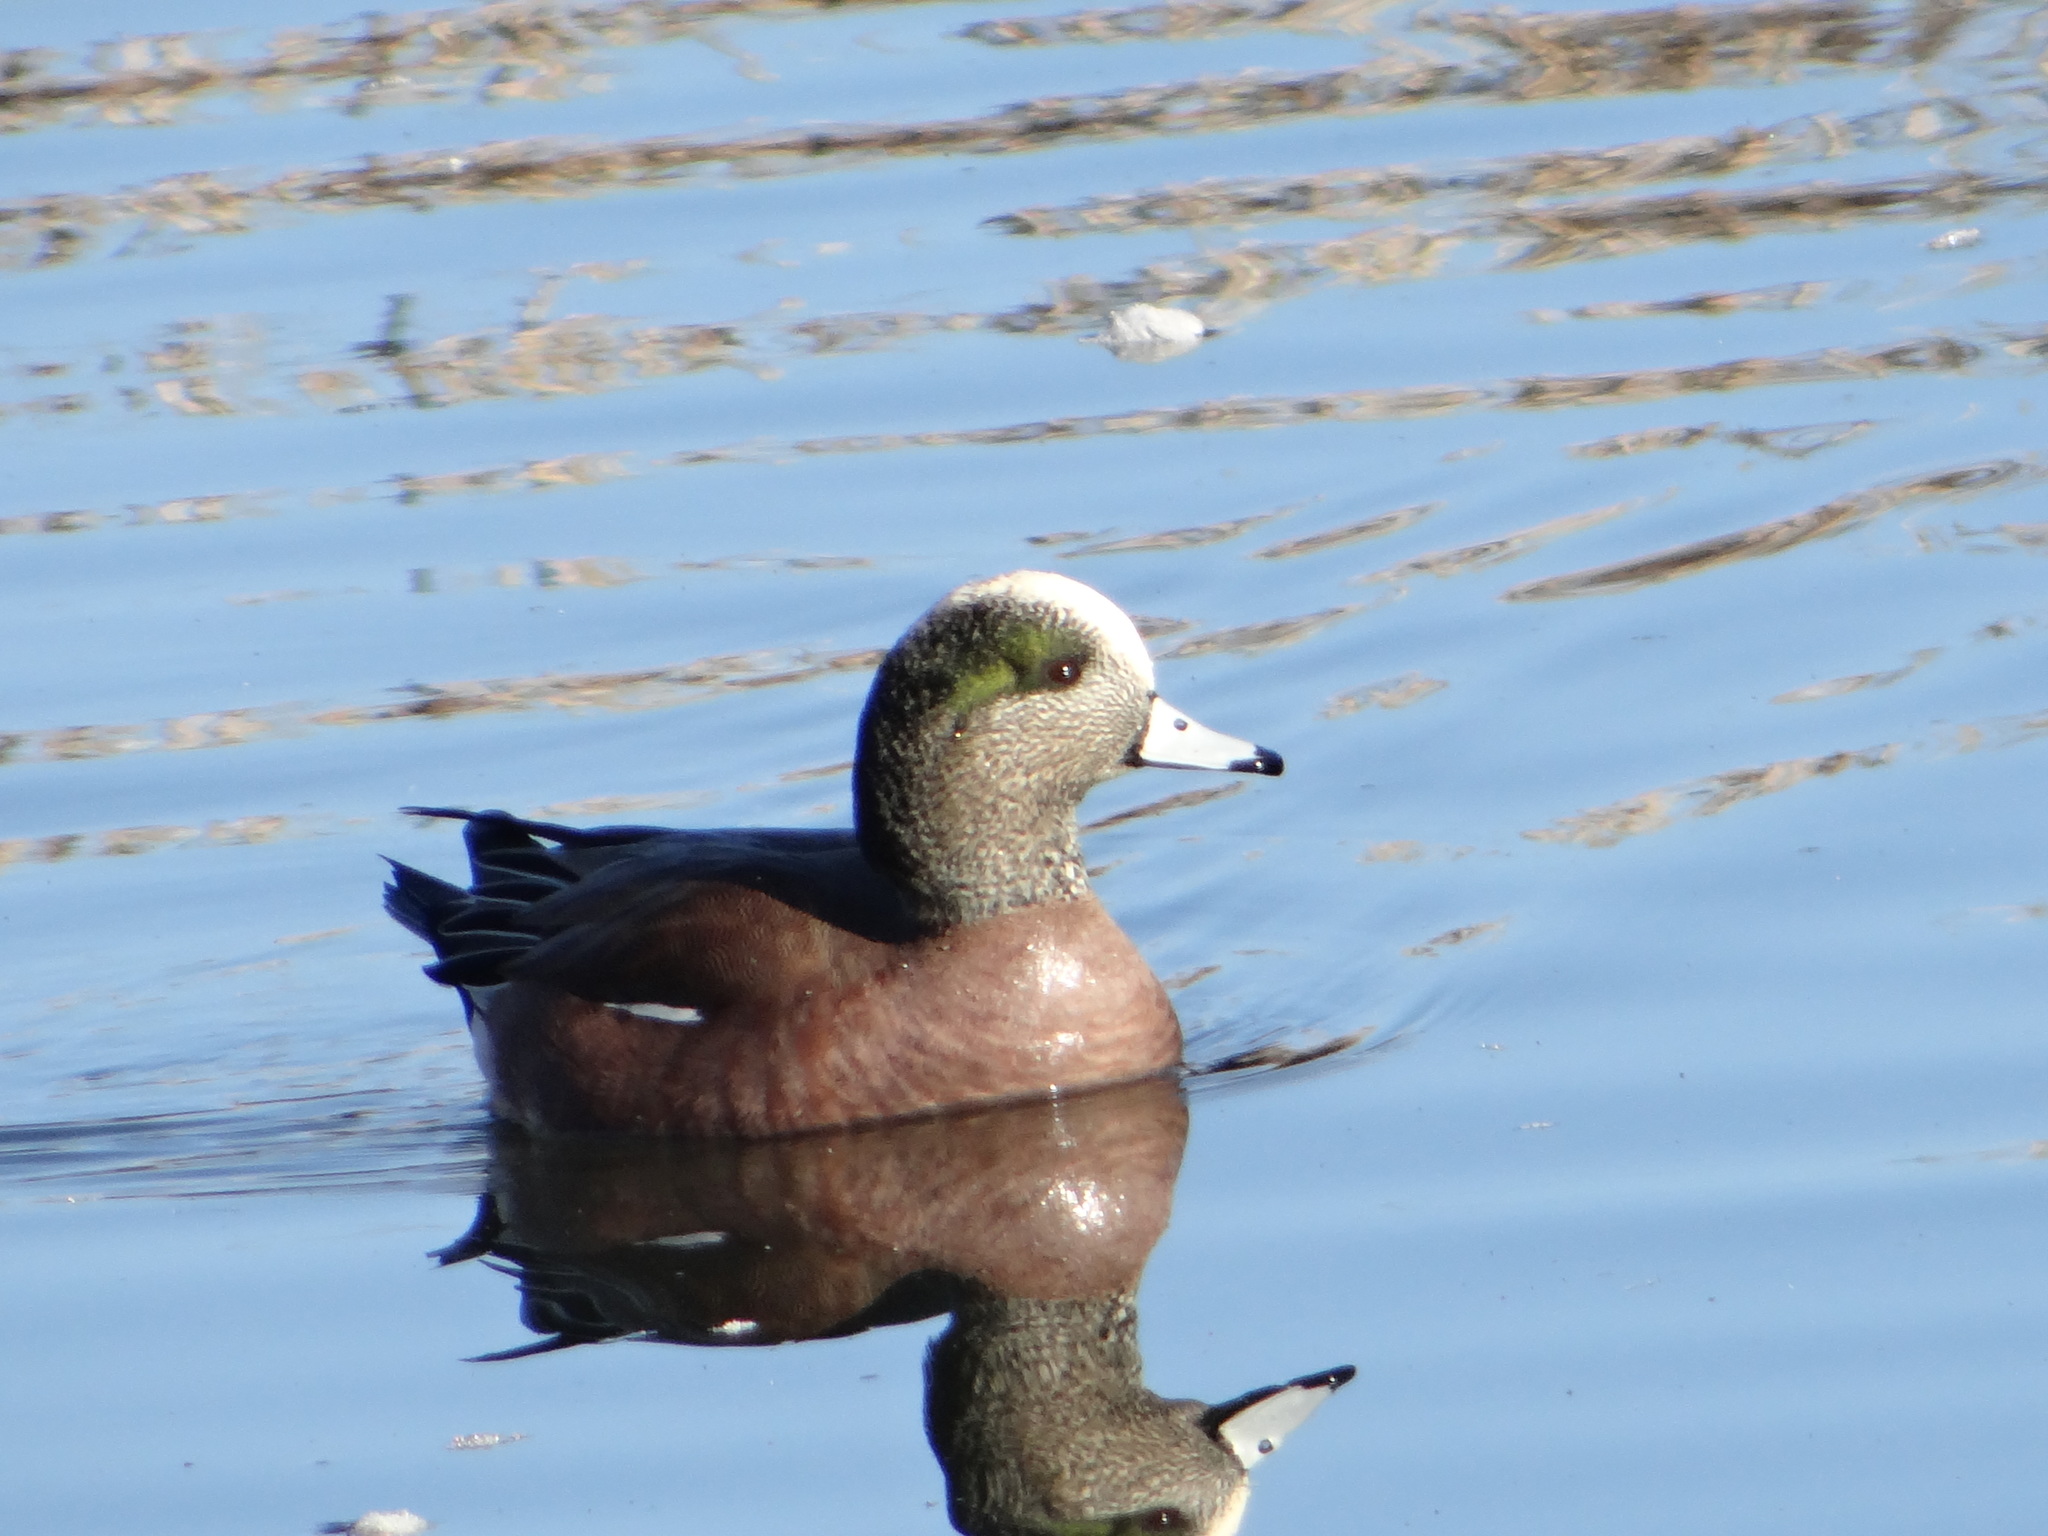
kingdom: Animalia
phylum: Chordata
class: Aves
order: Anseriformes
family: Anatidae
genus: Mareca
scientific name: Mareca americana
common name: American wigeon
